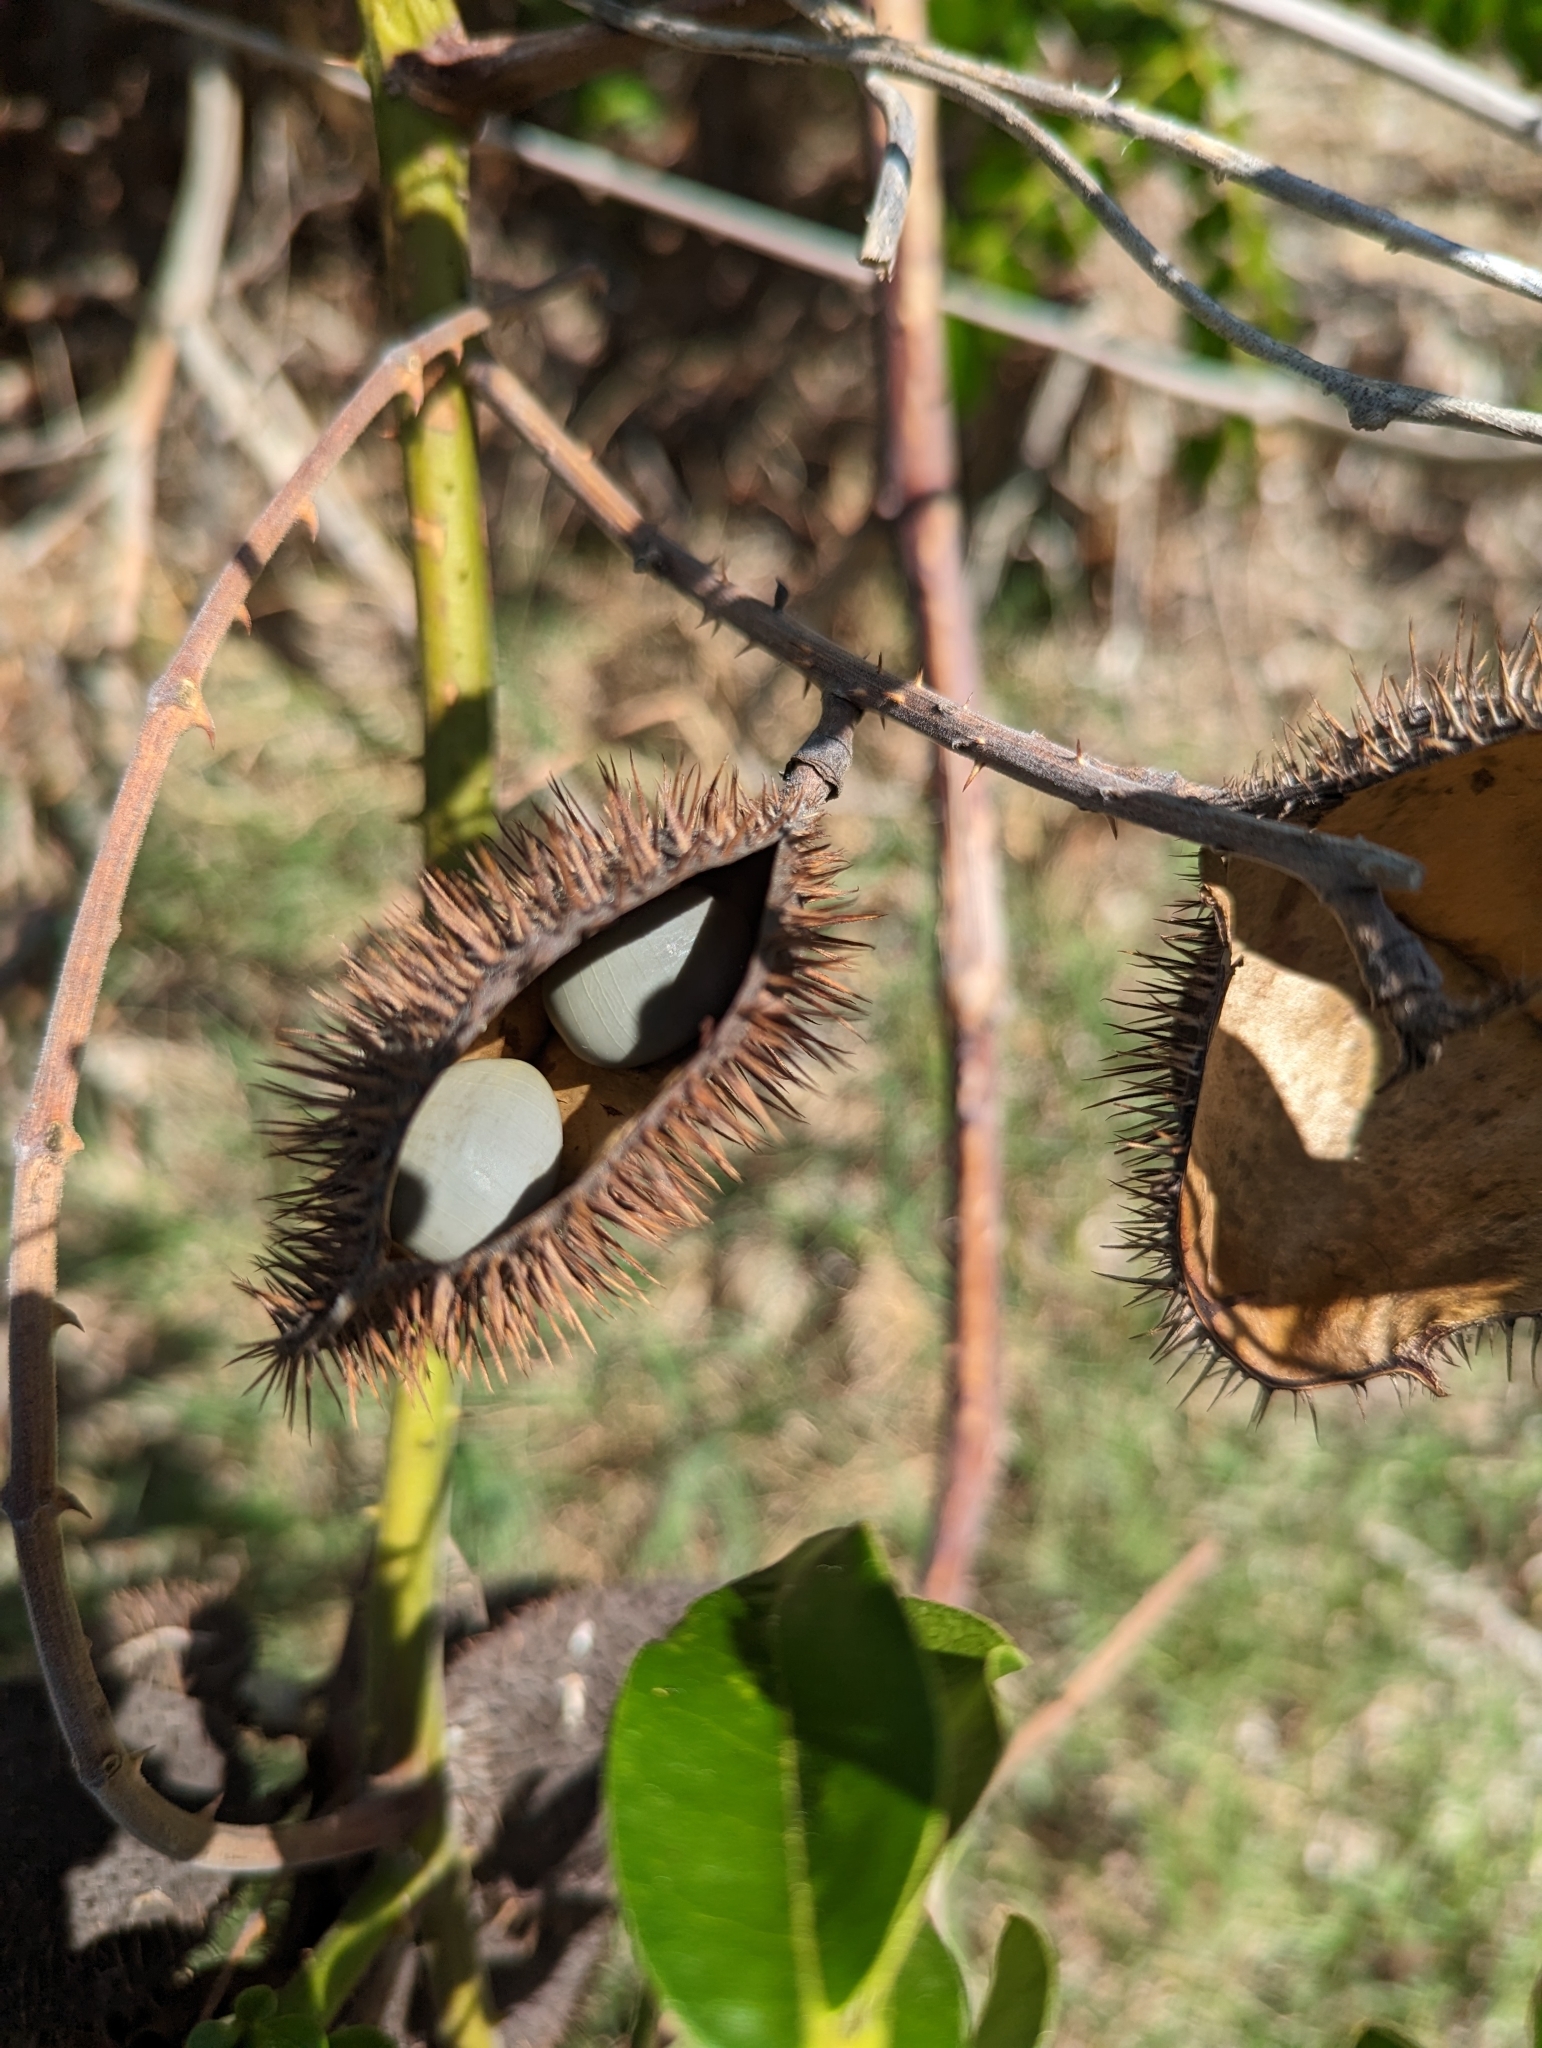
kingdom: Plantae
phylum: Tracheophyta
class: Magnoliopsida
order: Fabales
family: Fabaceae
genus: Guilandina
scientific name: Guilandina bonduc
